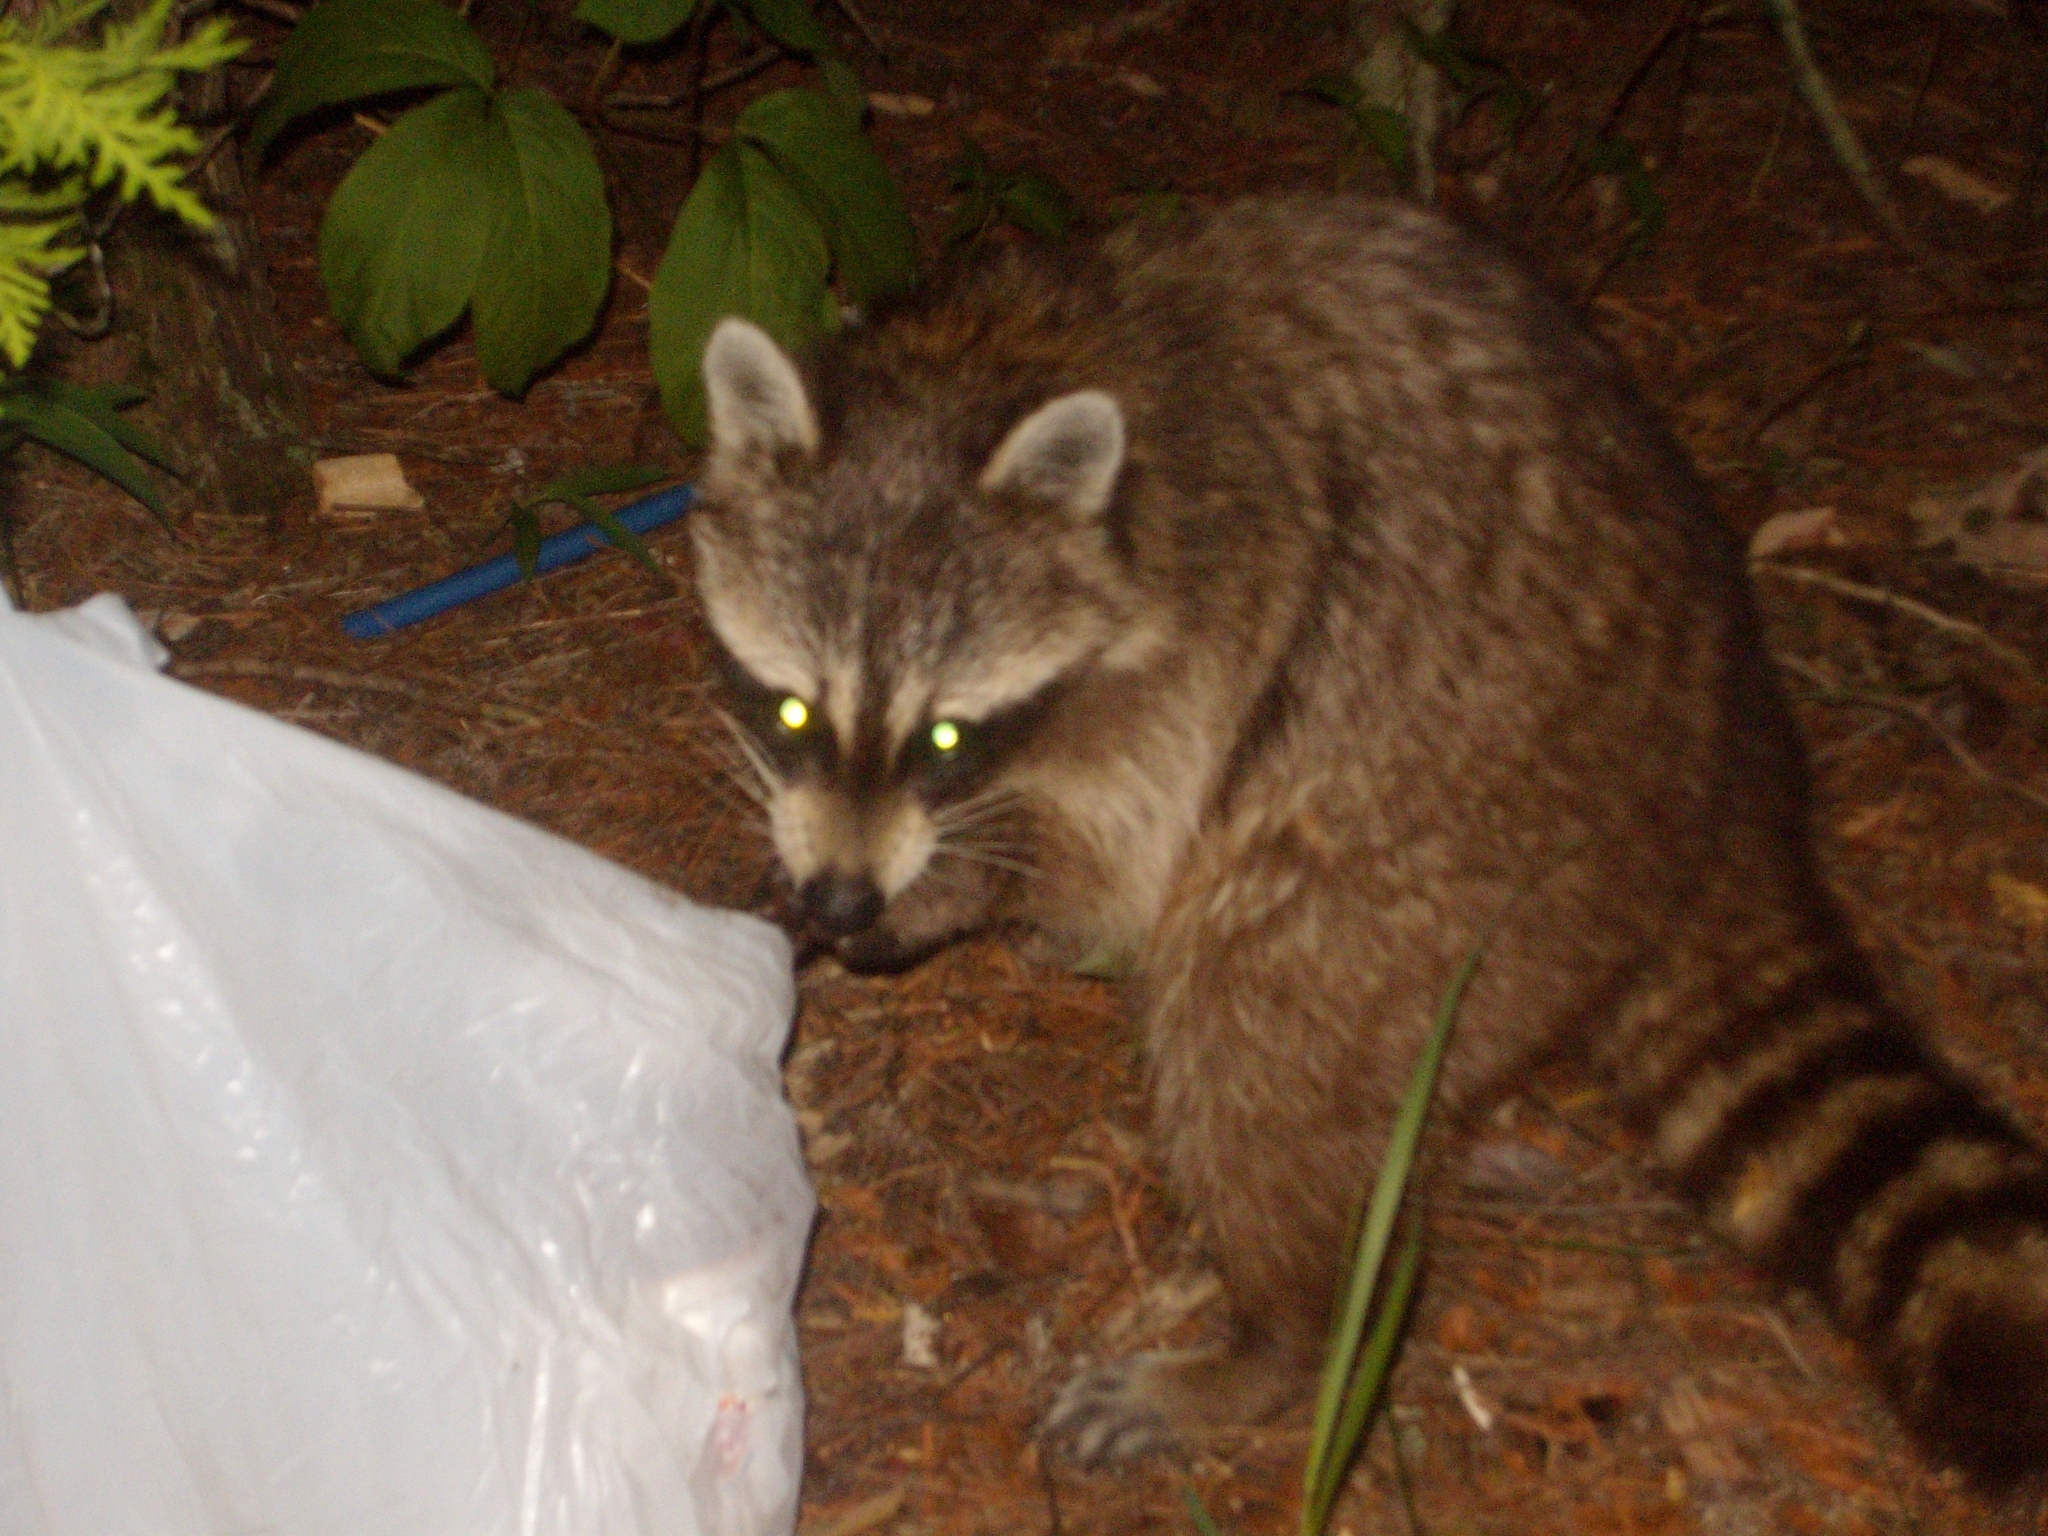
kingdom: Animalia
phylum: Chordata
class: Mammalia
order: Carnivora
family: Procyonidae
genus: Procyon
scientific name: Procyon lotor
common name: Raccoon
